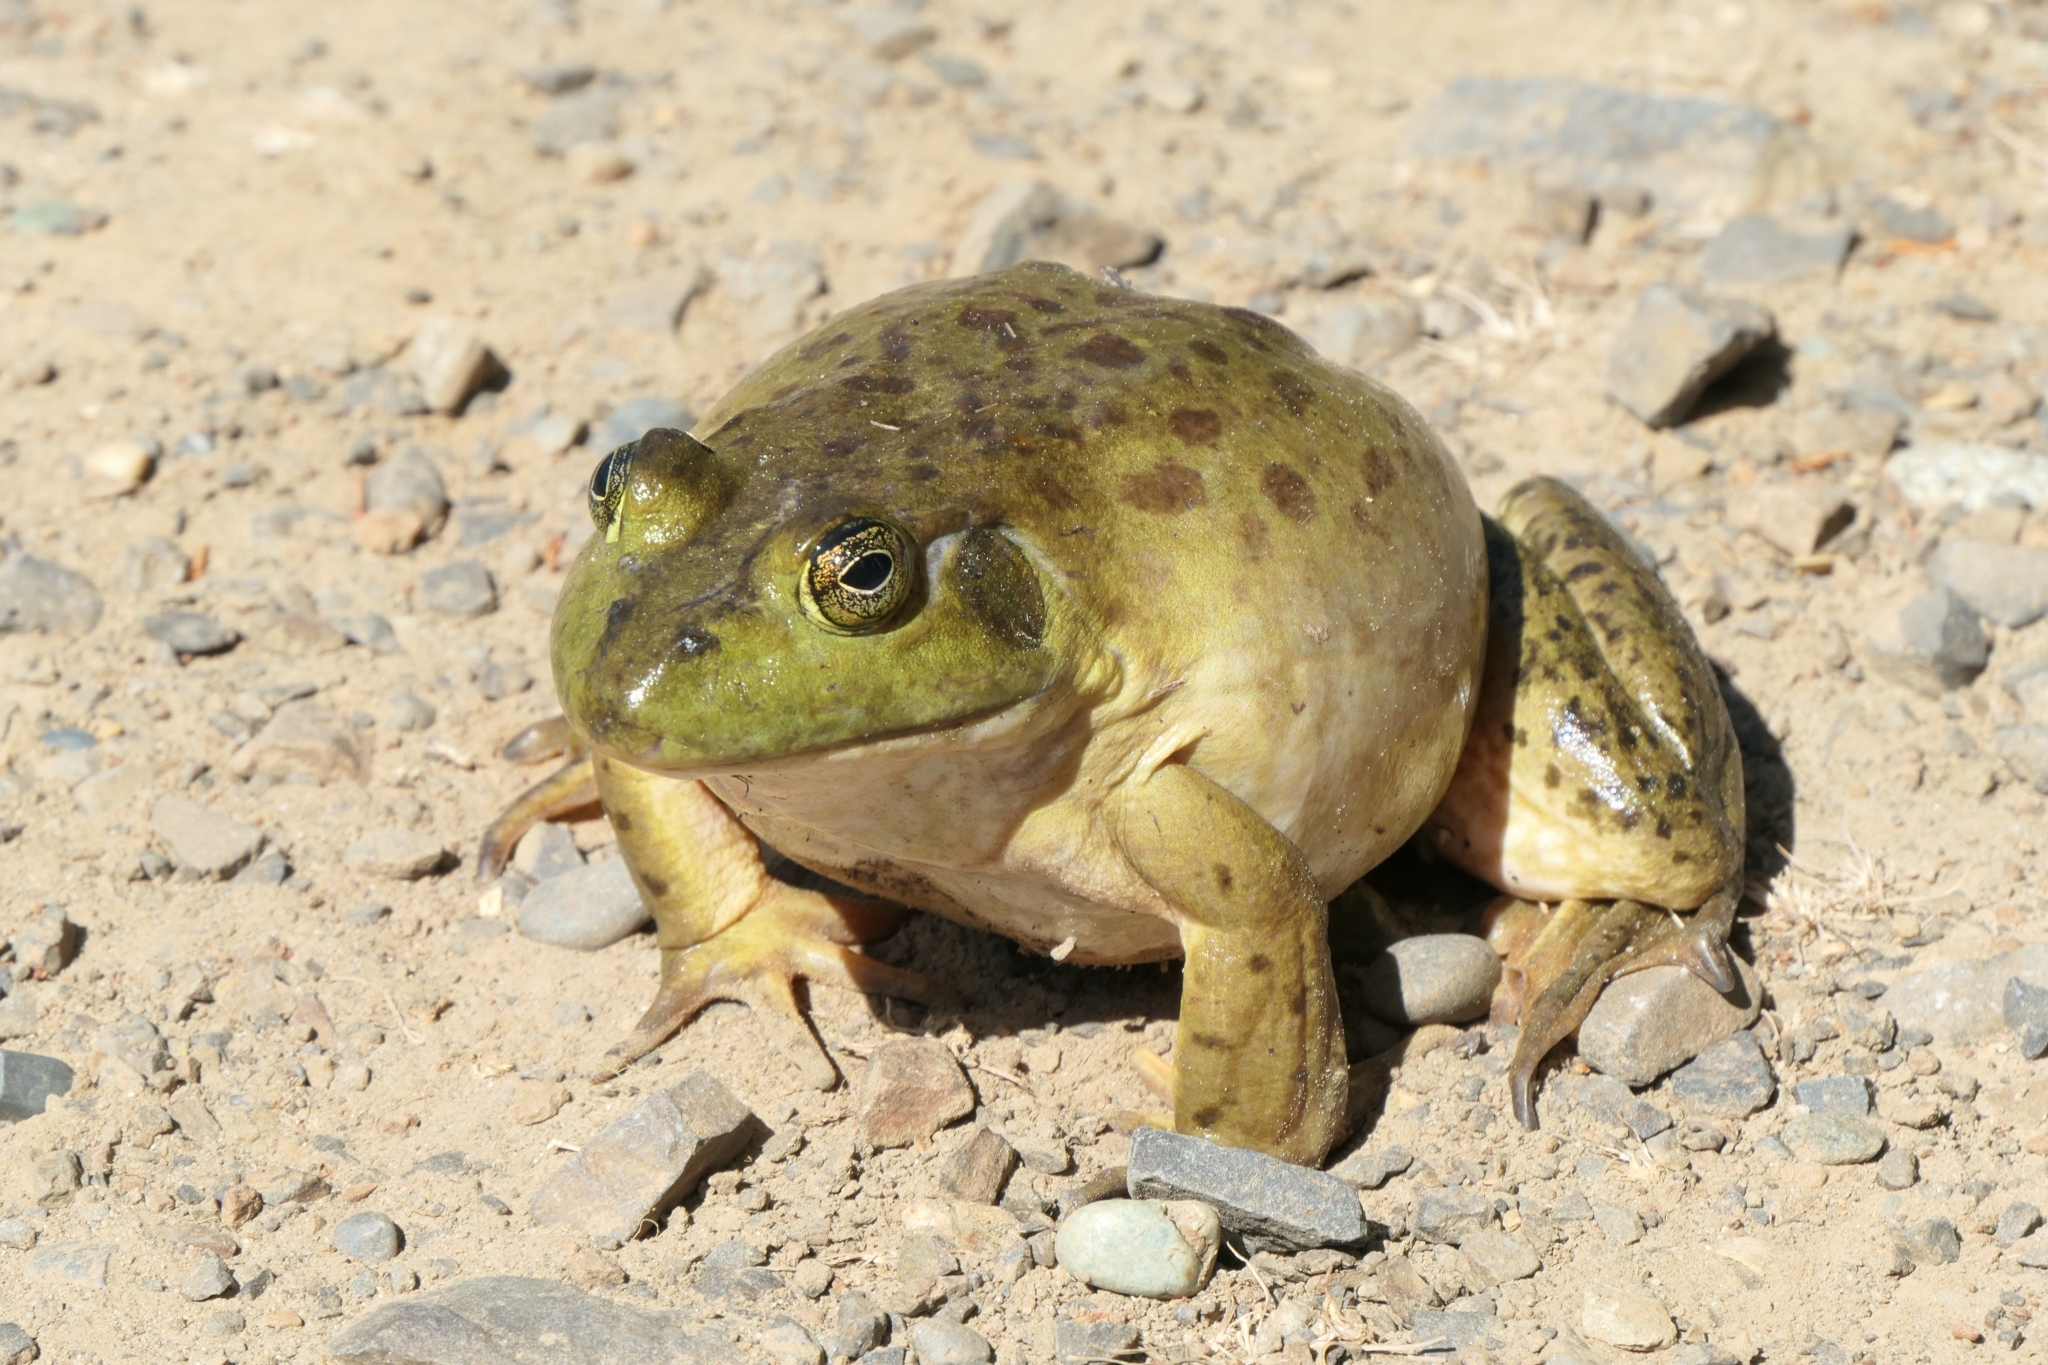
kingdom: Animalia
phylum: Chordata
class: Amphibia
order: Anura
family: Ranidae
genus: Lithobates
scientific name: Lithobates catesbeianus
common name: American bullfrog
